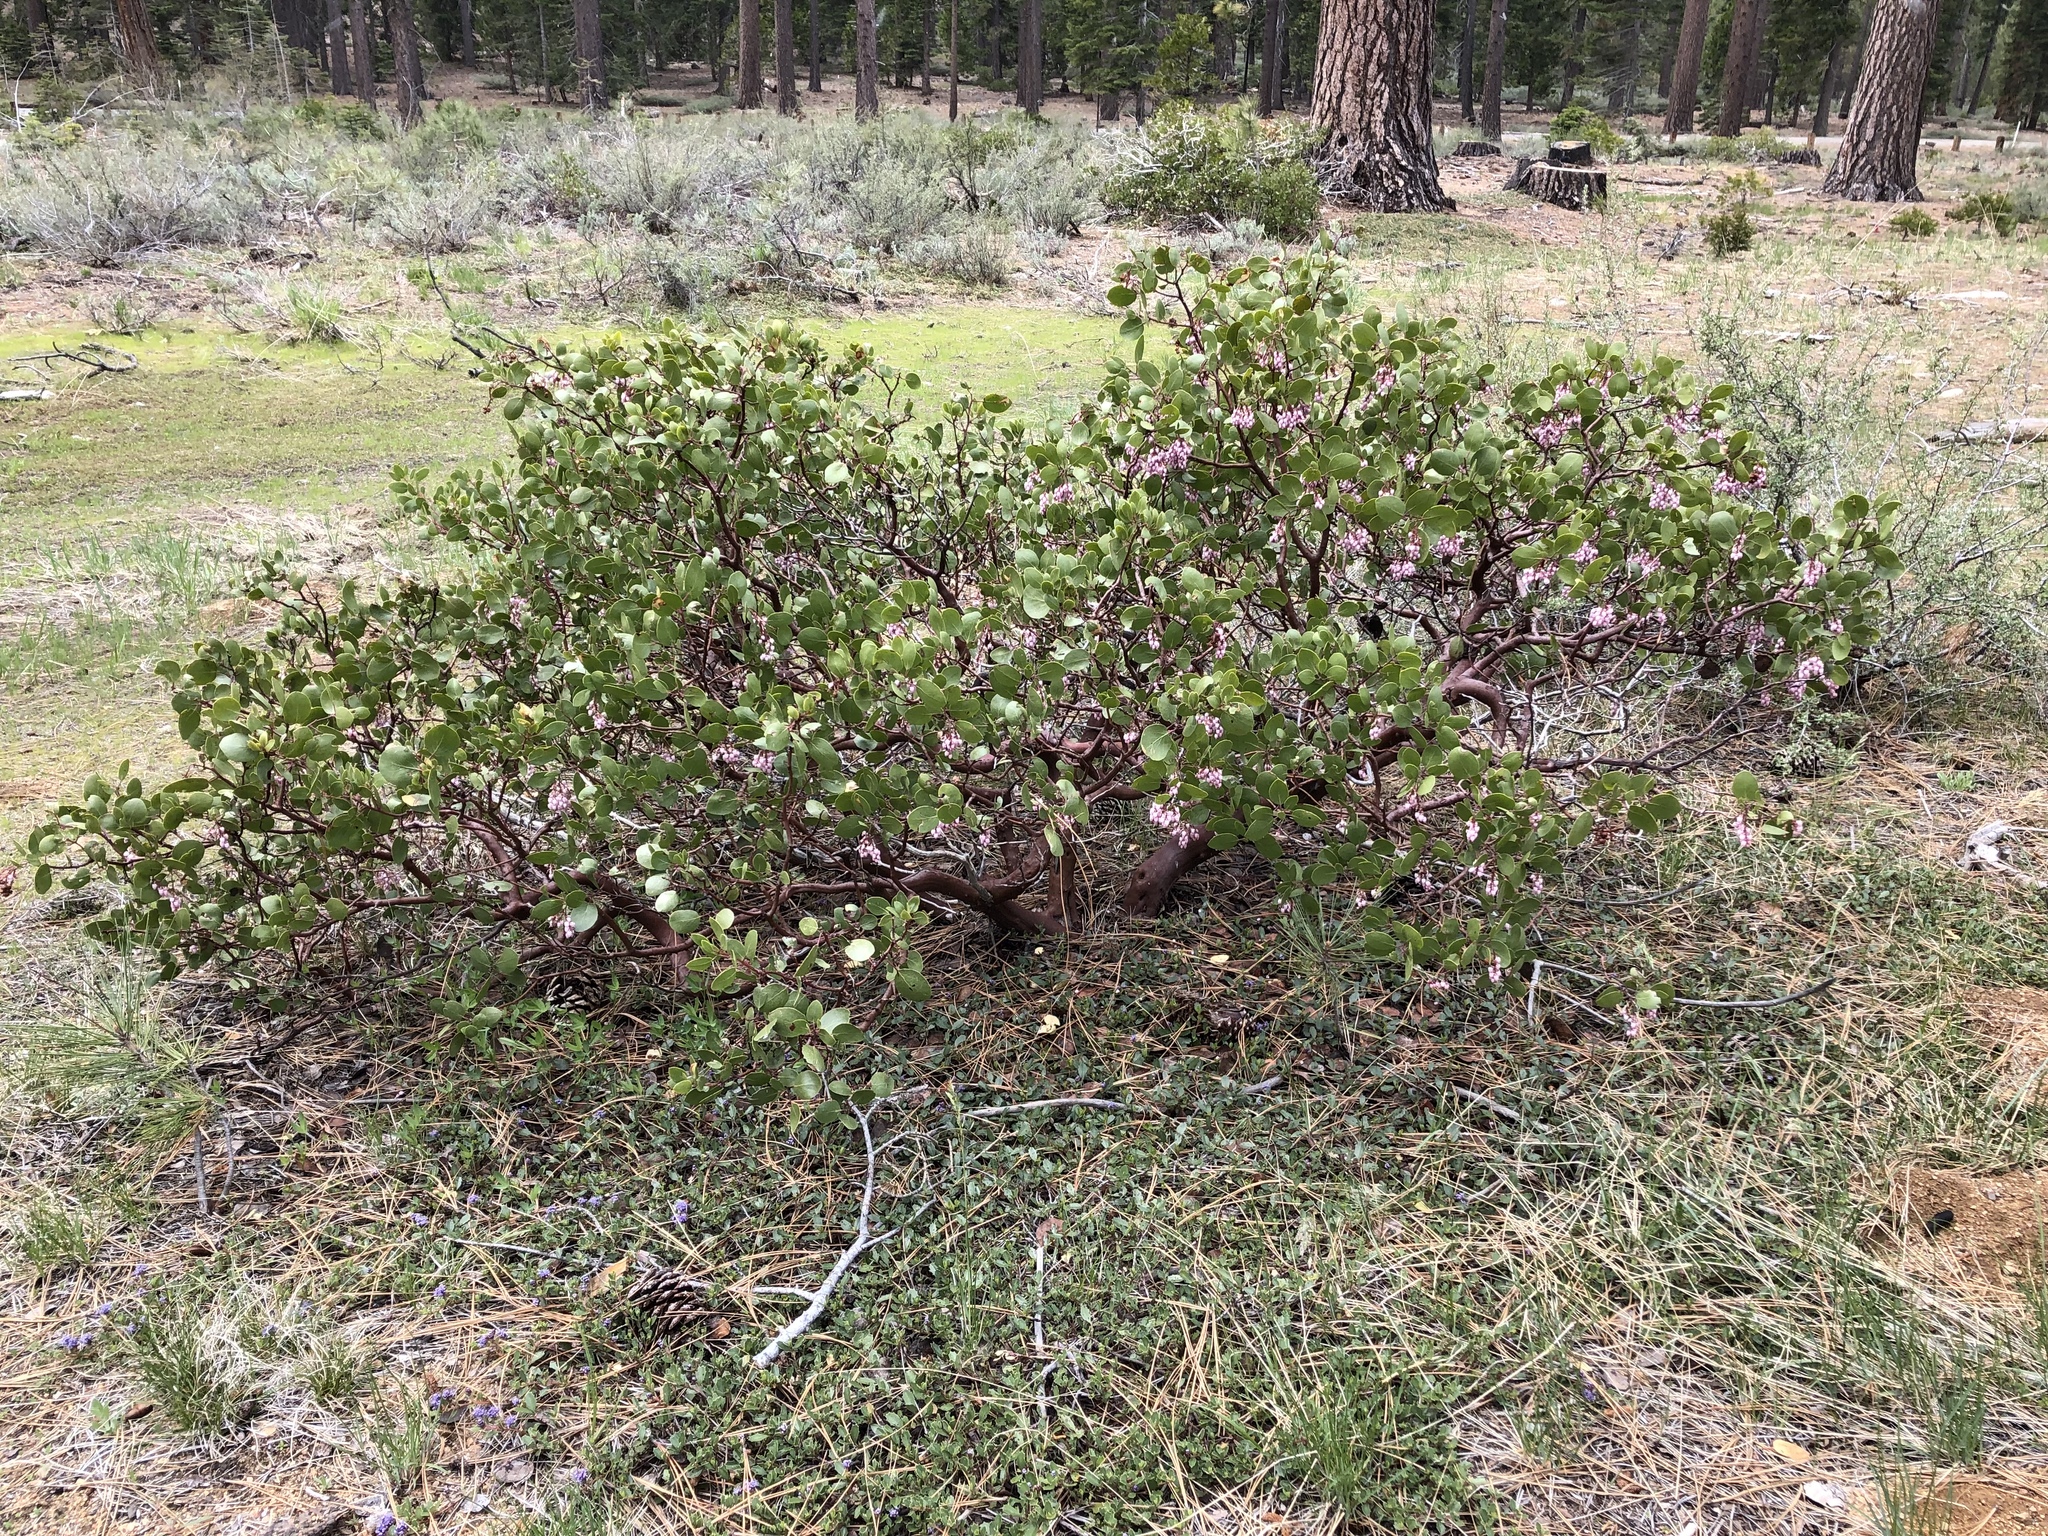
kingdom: Plantae
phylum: Tracheophyta
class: Magnoliopsida
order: Ericales
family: Ericaceae
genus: Arctostaphylos
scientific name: Arctostaphylos patula
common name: Green-leaf manzanita
